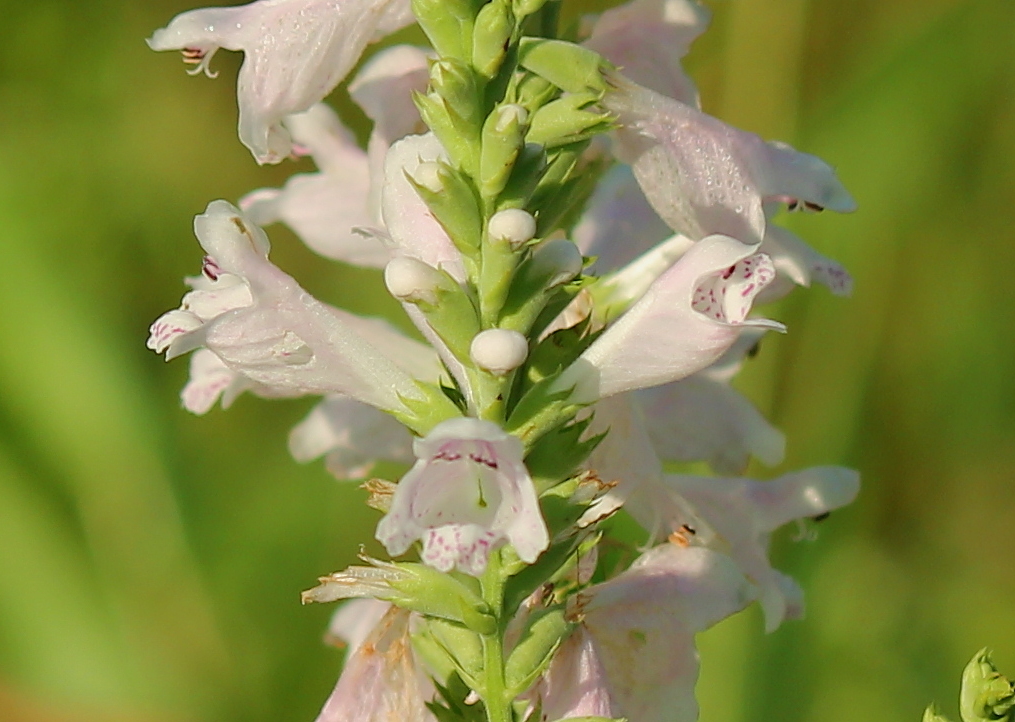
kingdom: Plantae
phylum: Tracheophyta
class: Magnoliopsida
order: Lamiales
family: Lamiaceae
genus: Physostegia
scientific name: Physostegia angustifolia
